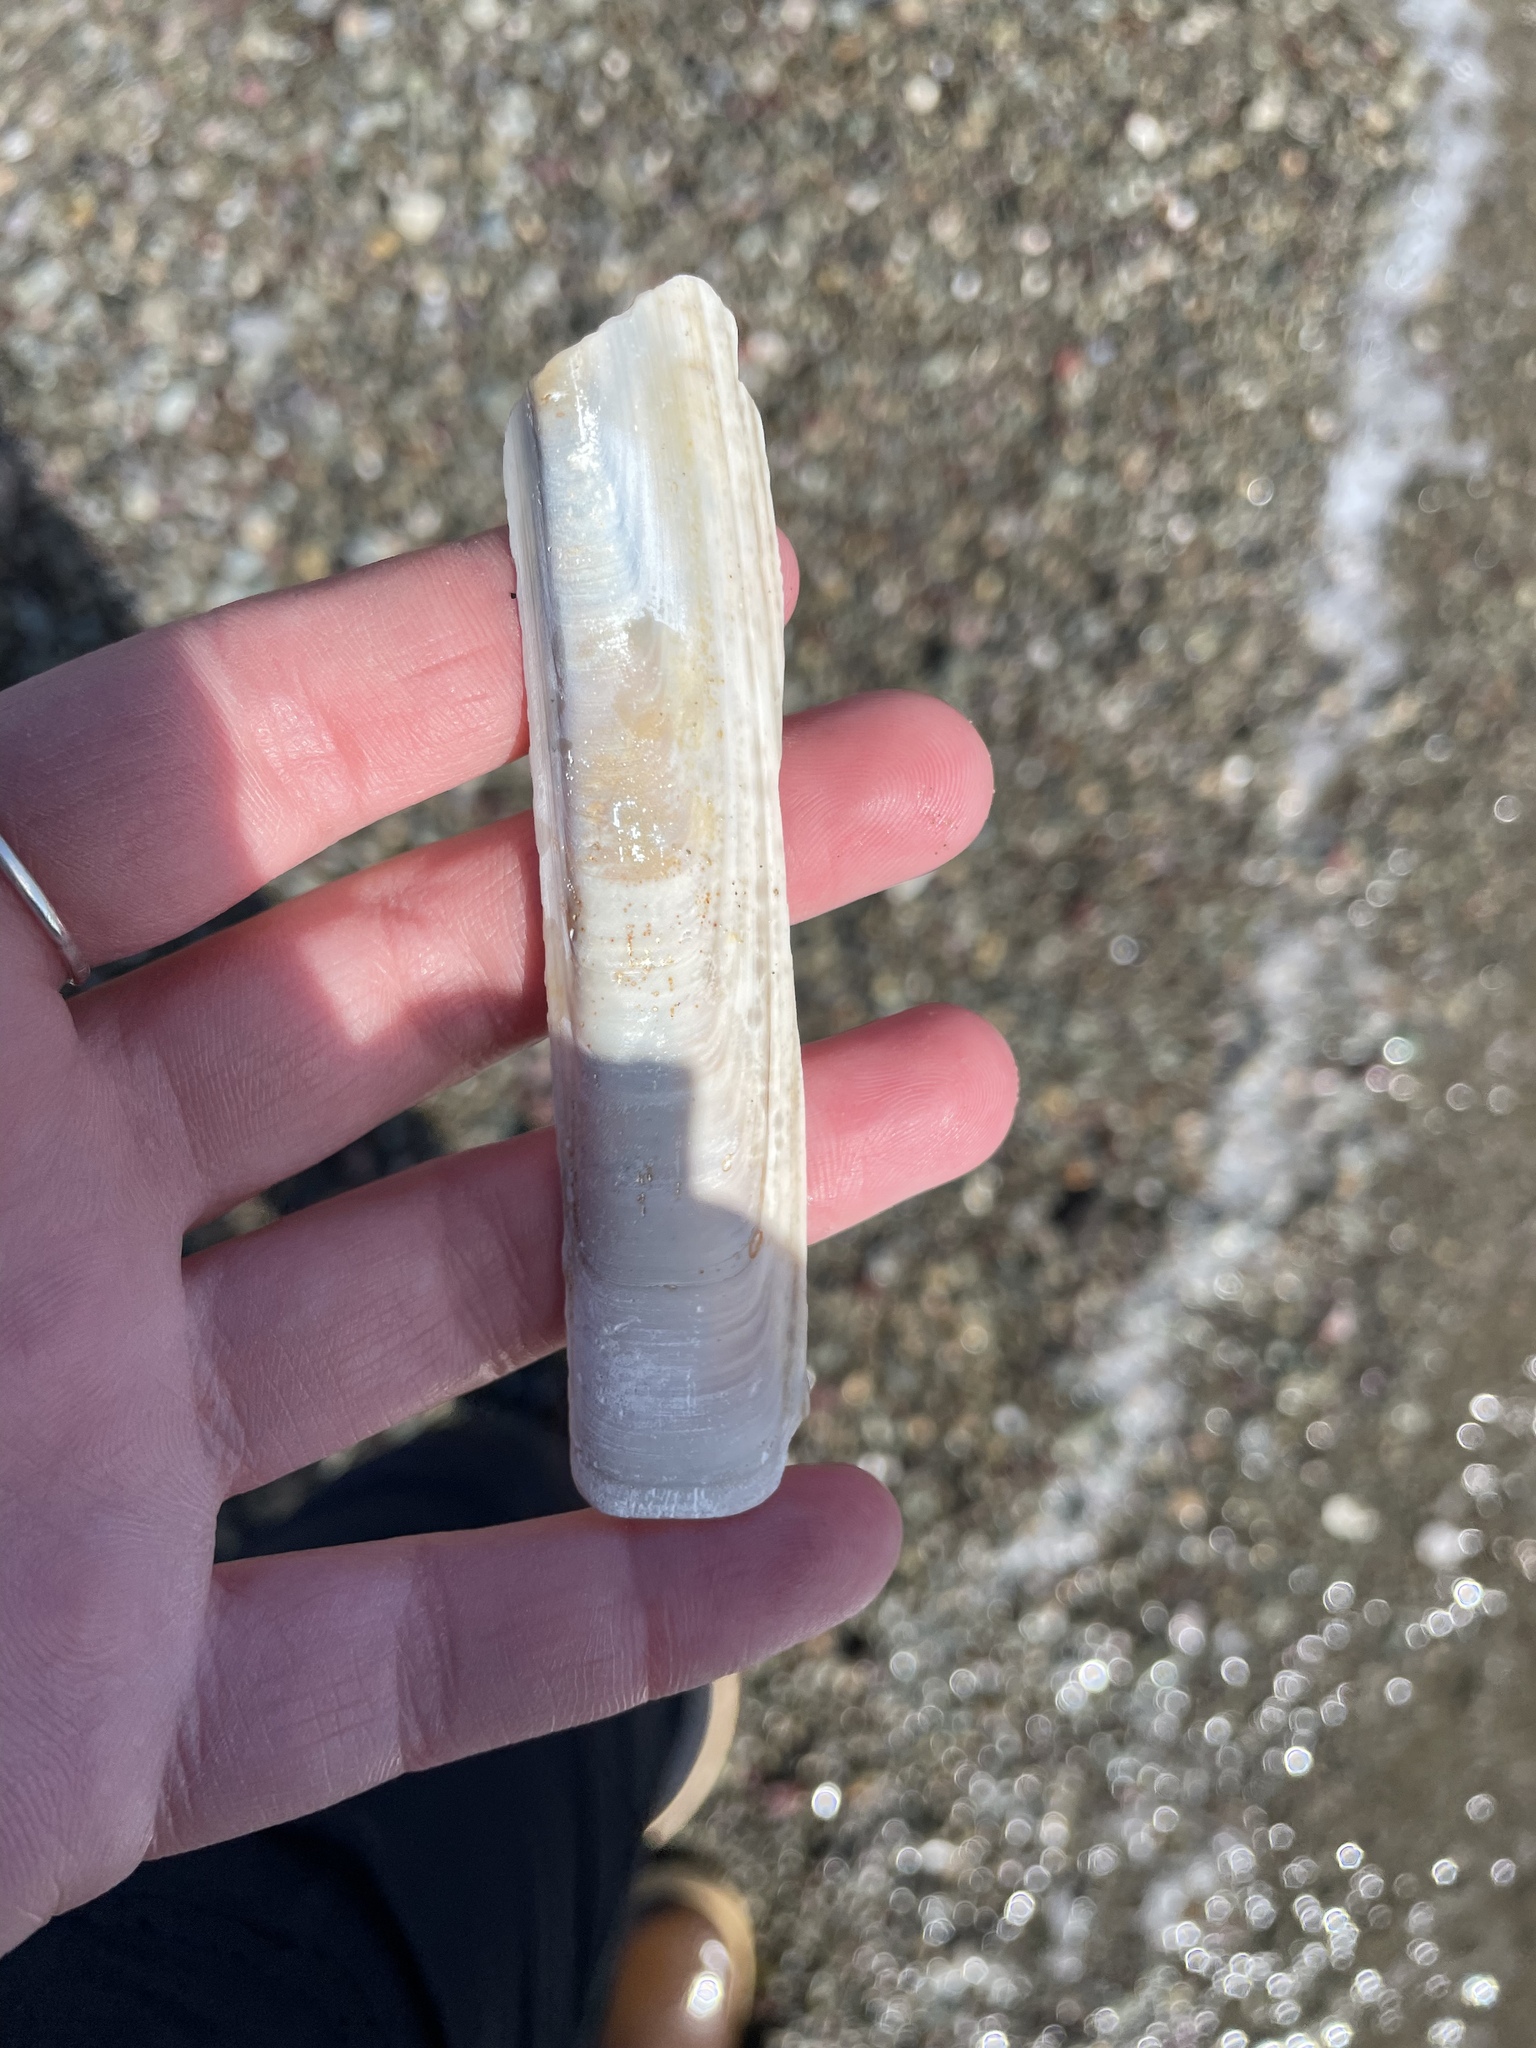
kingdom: Animalia
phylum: Mollusca
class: Bivalvia
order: Adapedonta
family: Pharidae
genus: Ensis
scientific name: Ensis leei
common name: American jack knife clam
